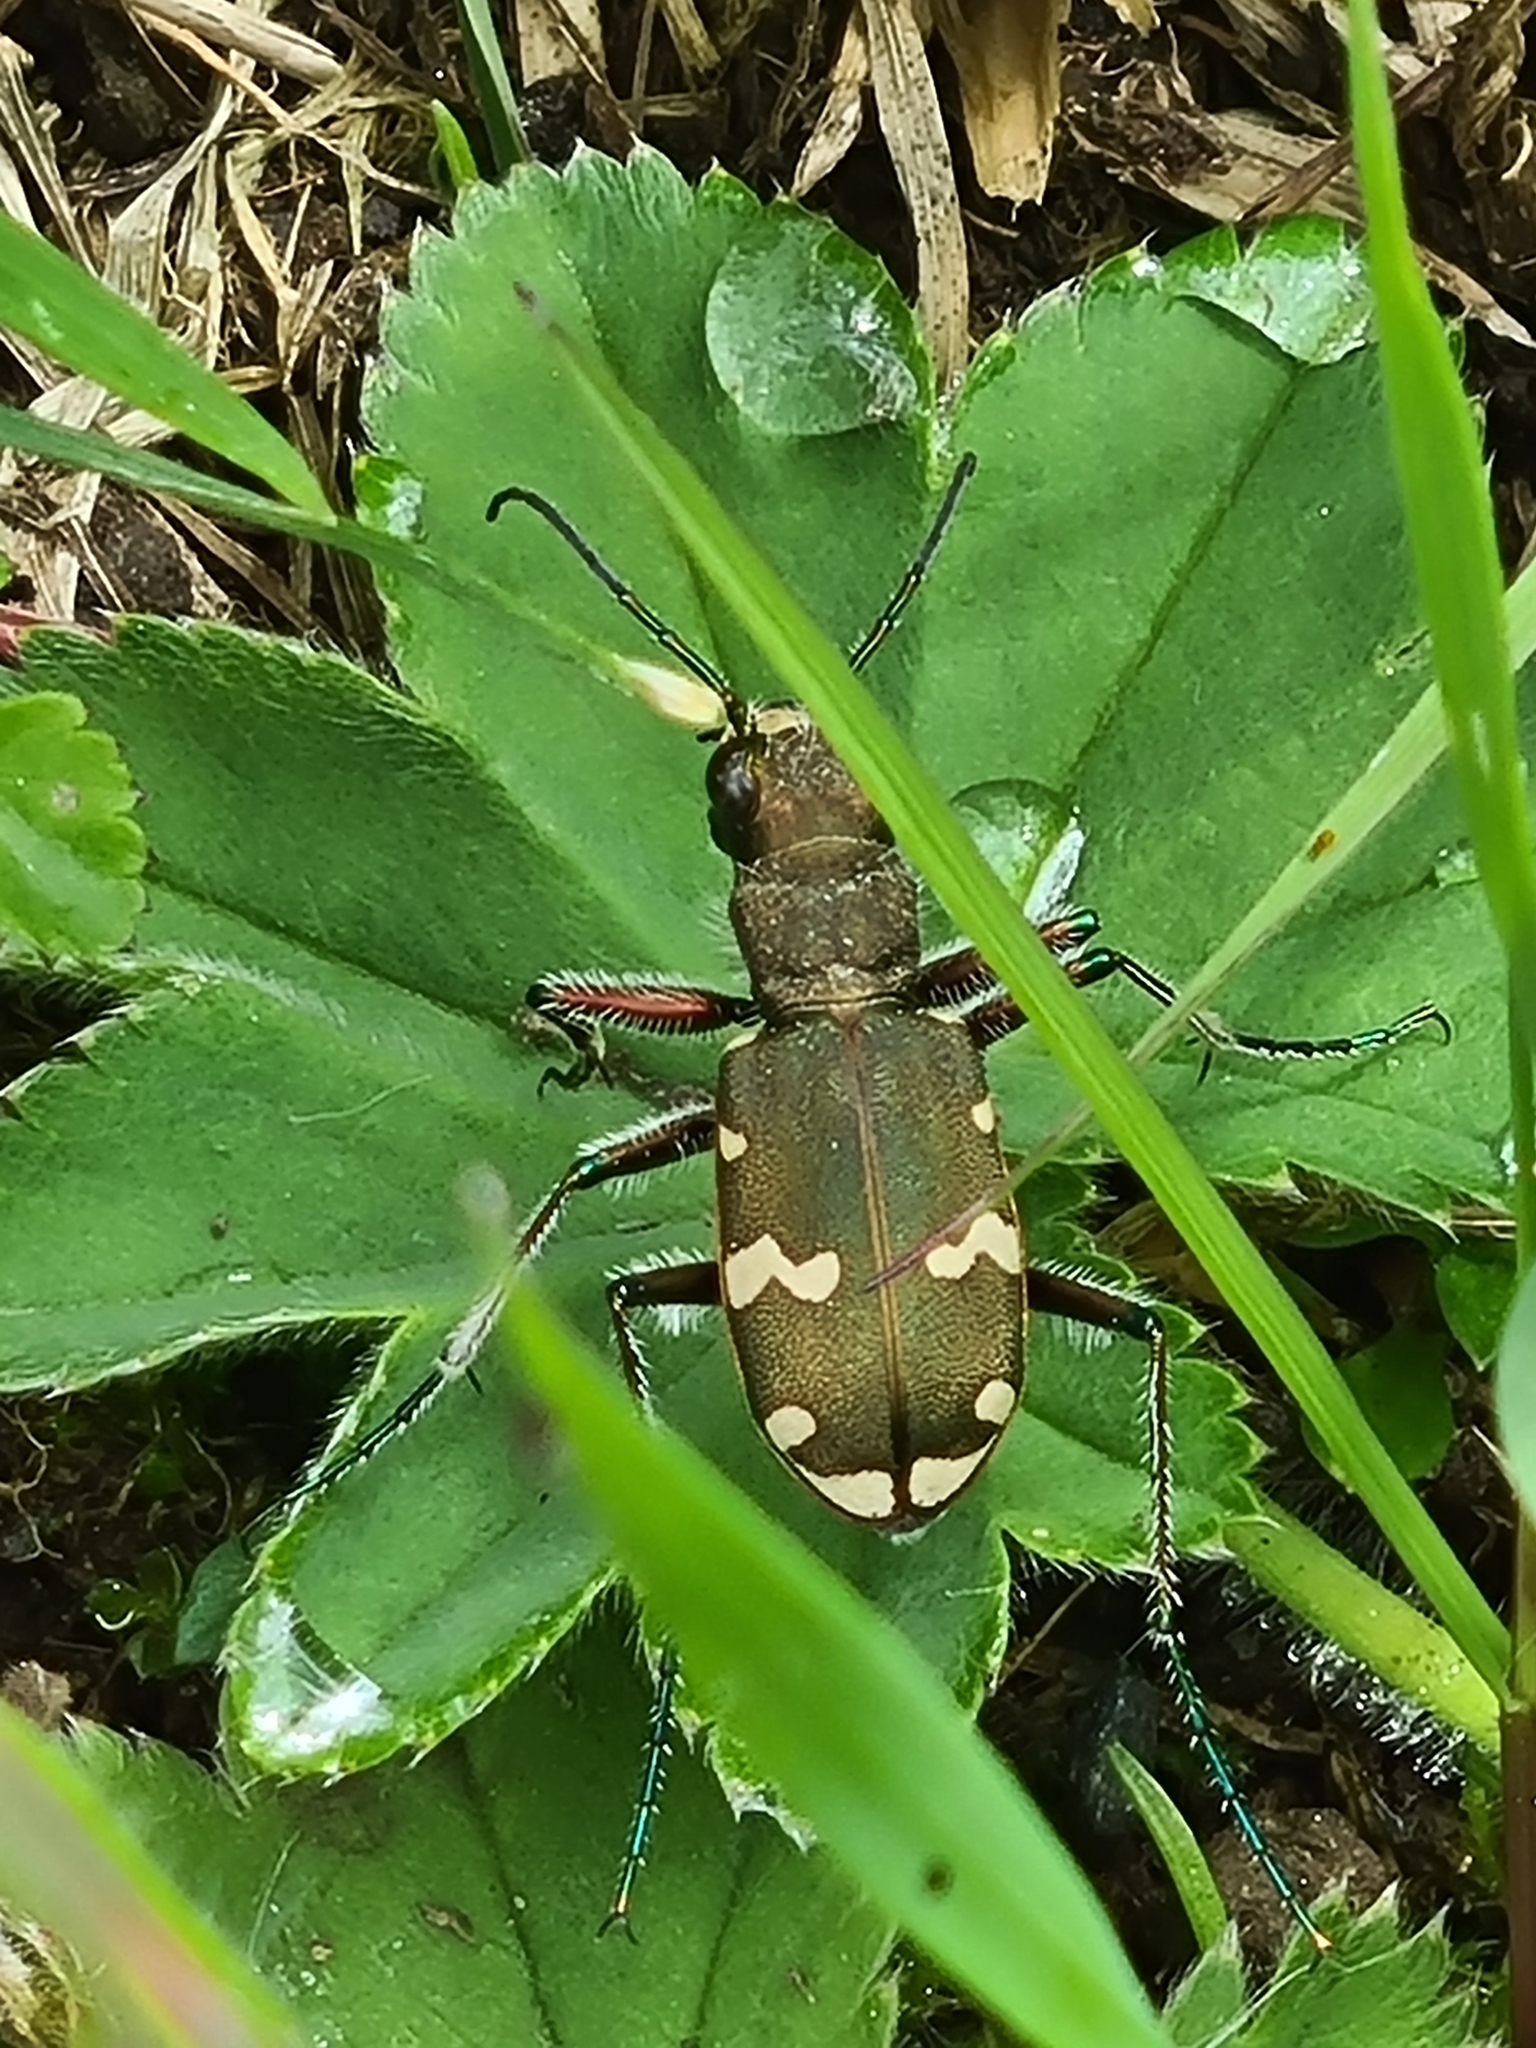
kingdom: Animalia
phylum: Arthropoda
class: Insecta
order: Coleoptera
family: Carabidae
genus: Cicindela
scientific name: Cicindela sylvicola
